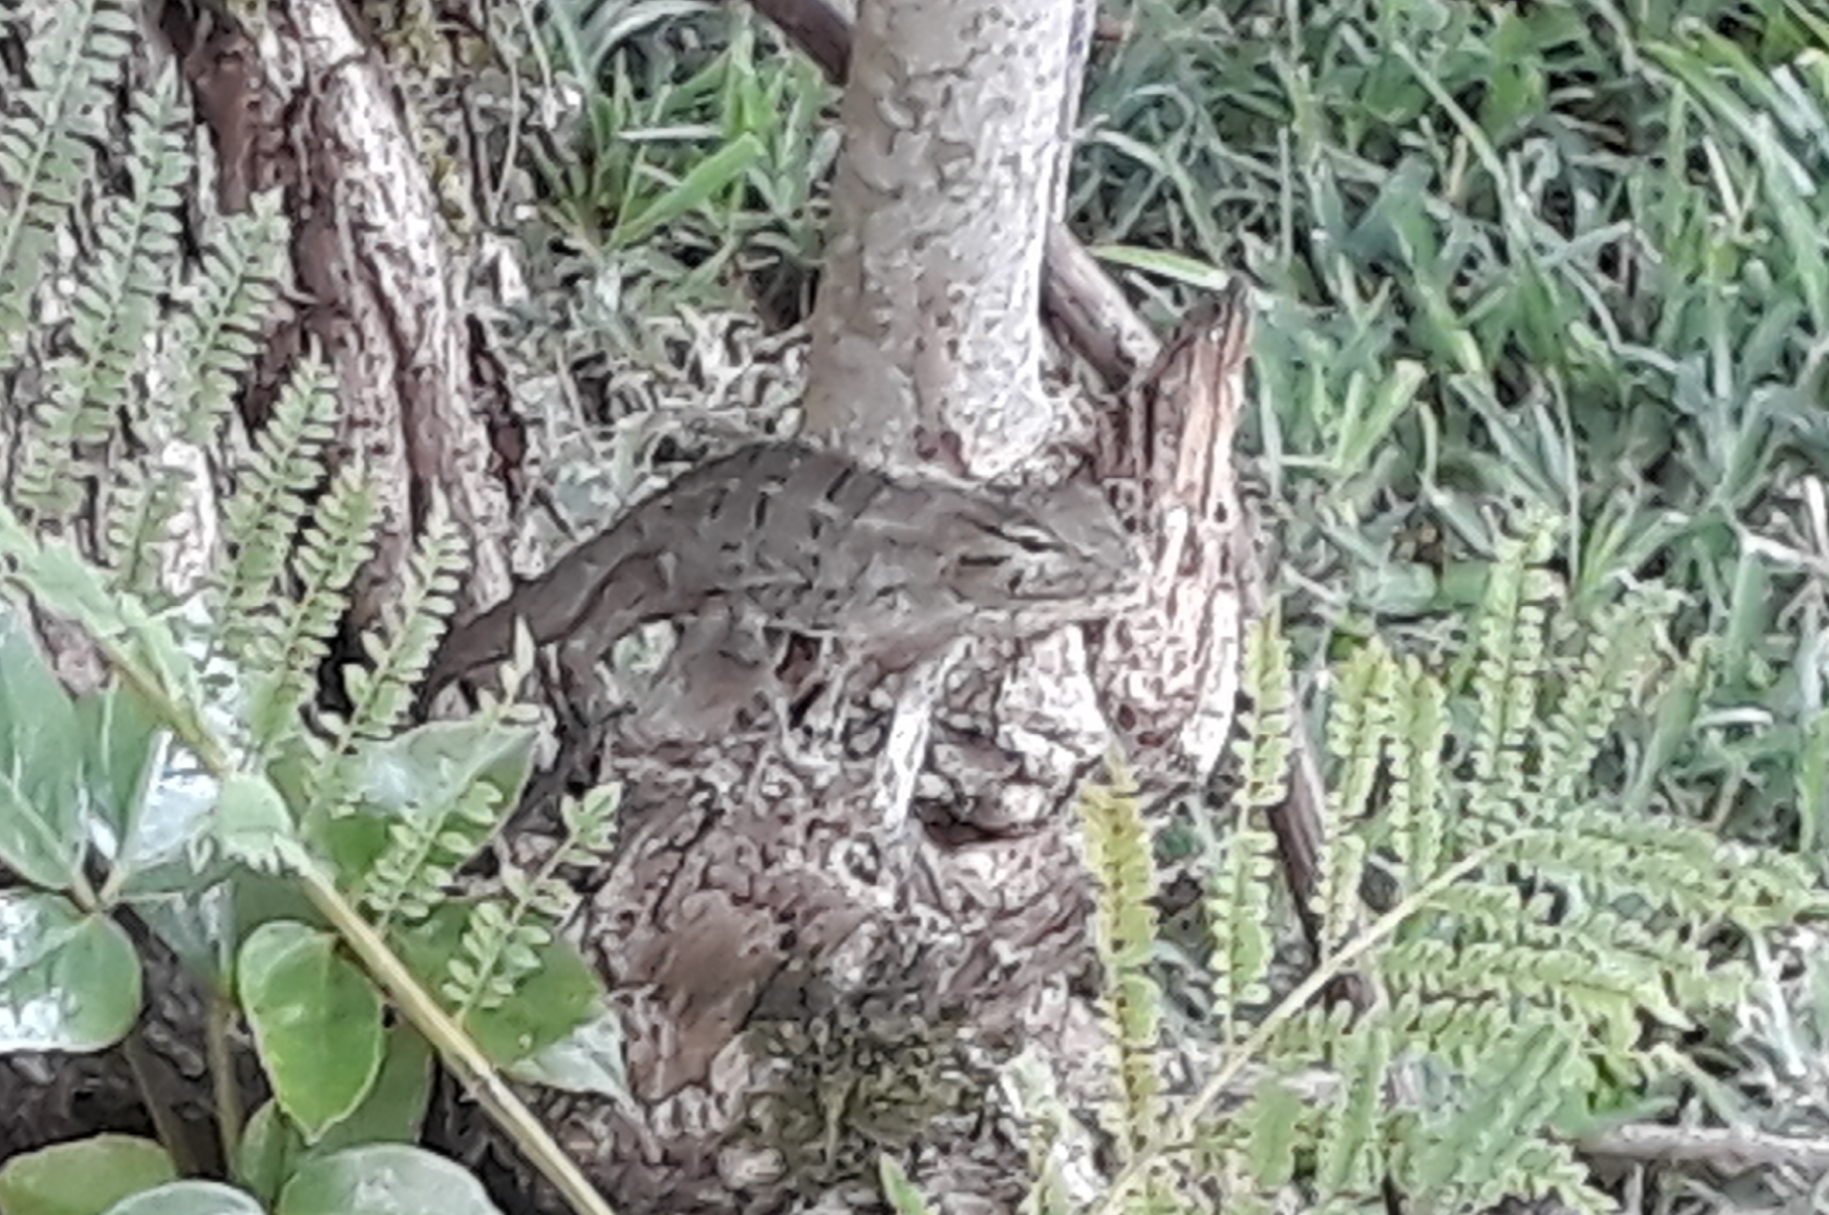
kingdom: Animalia
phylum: Chordata
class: Squamata
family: Agamidae
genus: Calotes
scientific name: Calotes versicolor
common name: Oriental garden lizard
